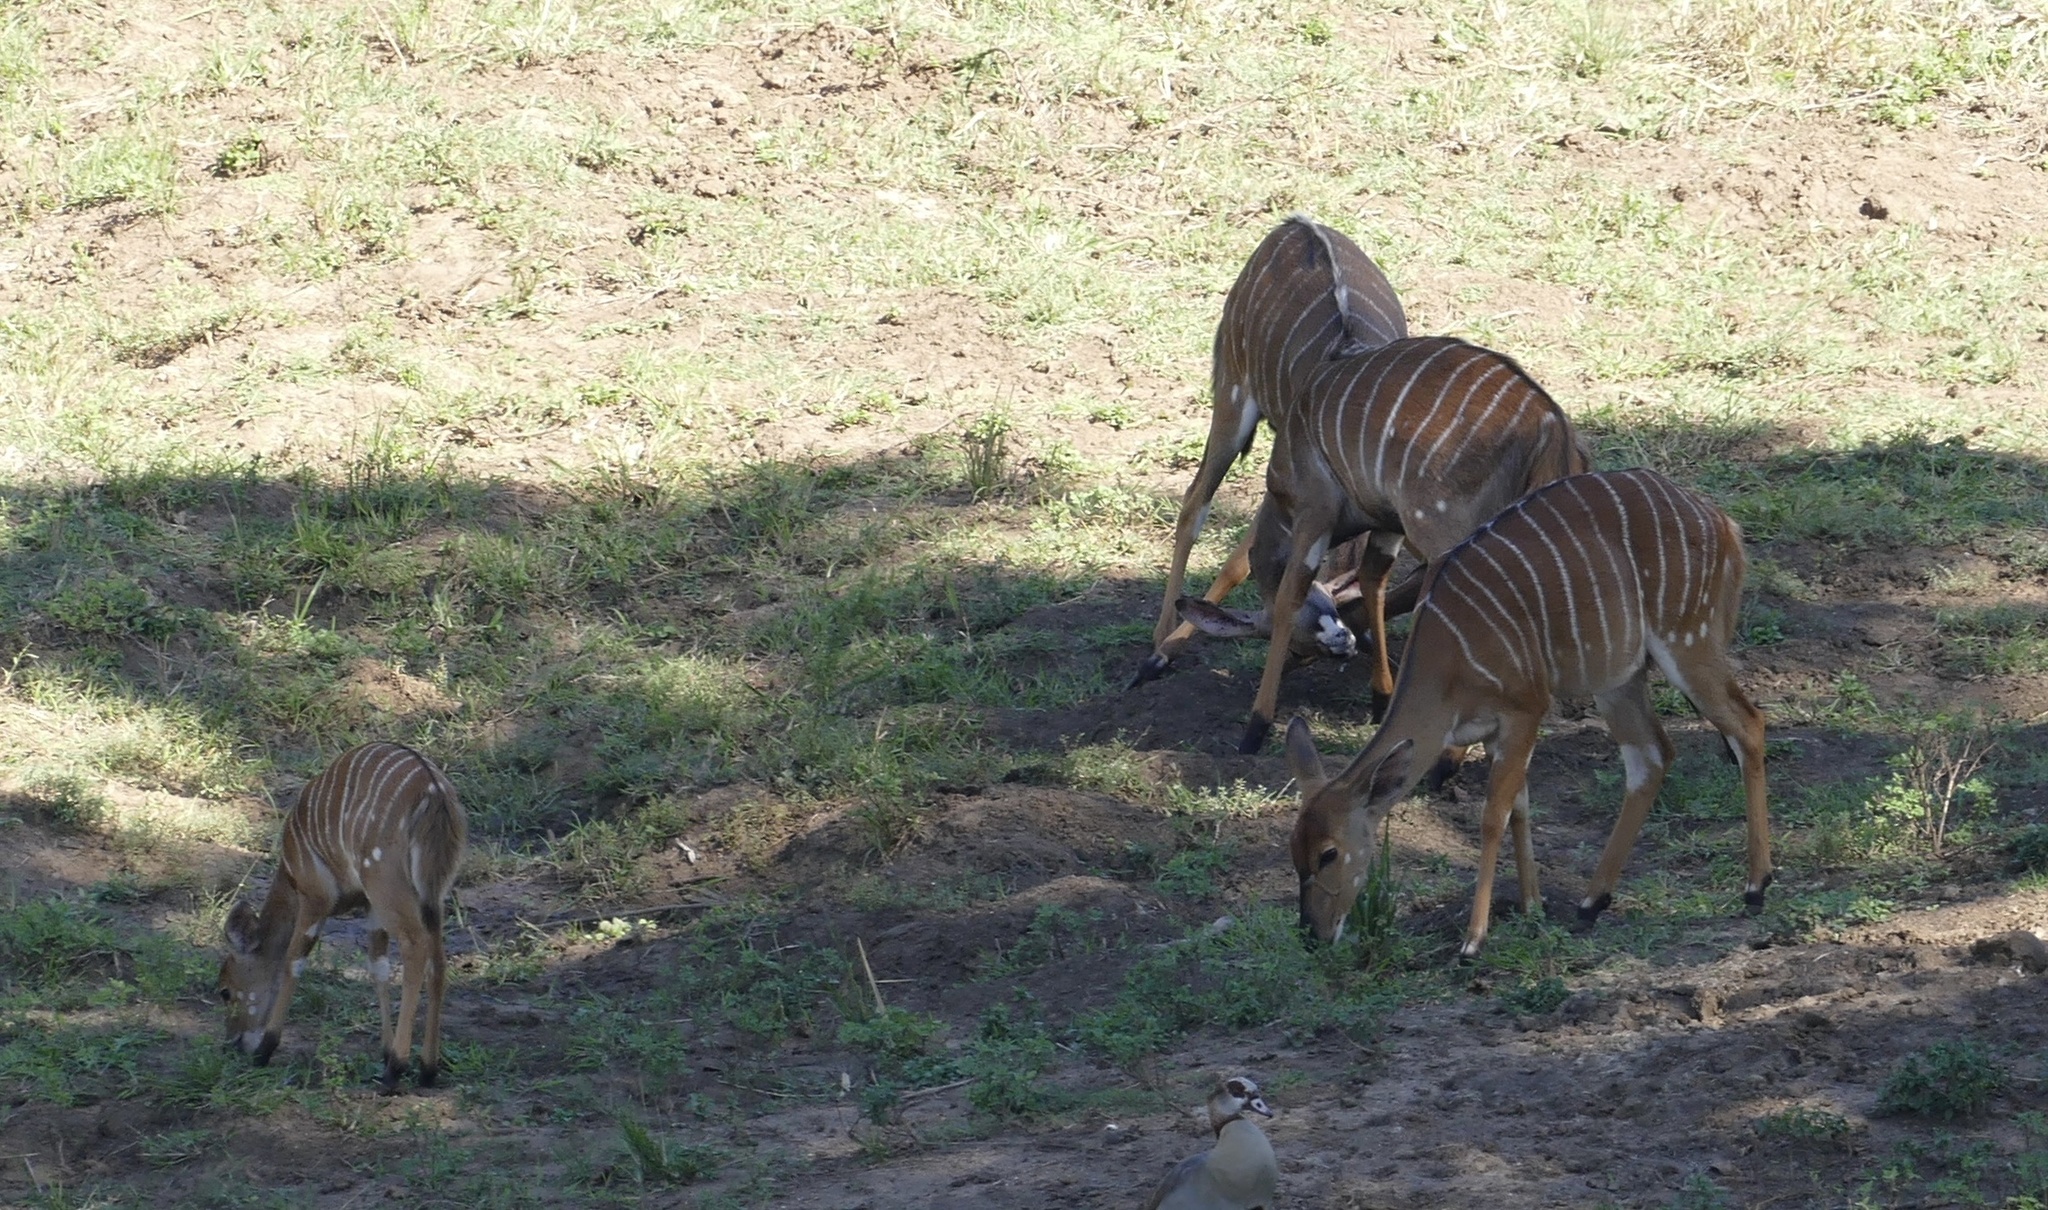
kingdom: Animalia
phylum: Chordata
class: Mammalia
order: Artiodactyla
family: Bovidae
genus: Tragelaphus
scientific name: Tragelaphus angasii
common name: Nyala
